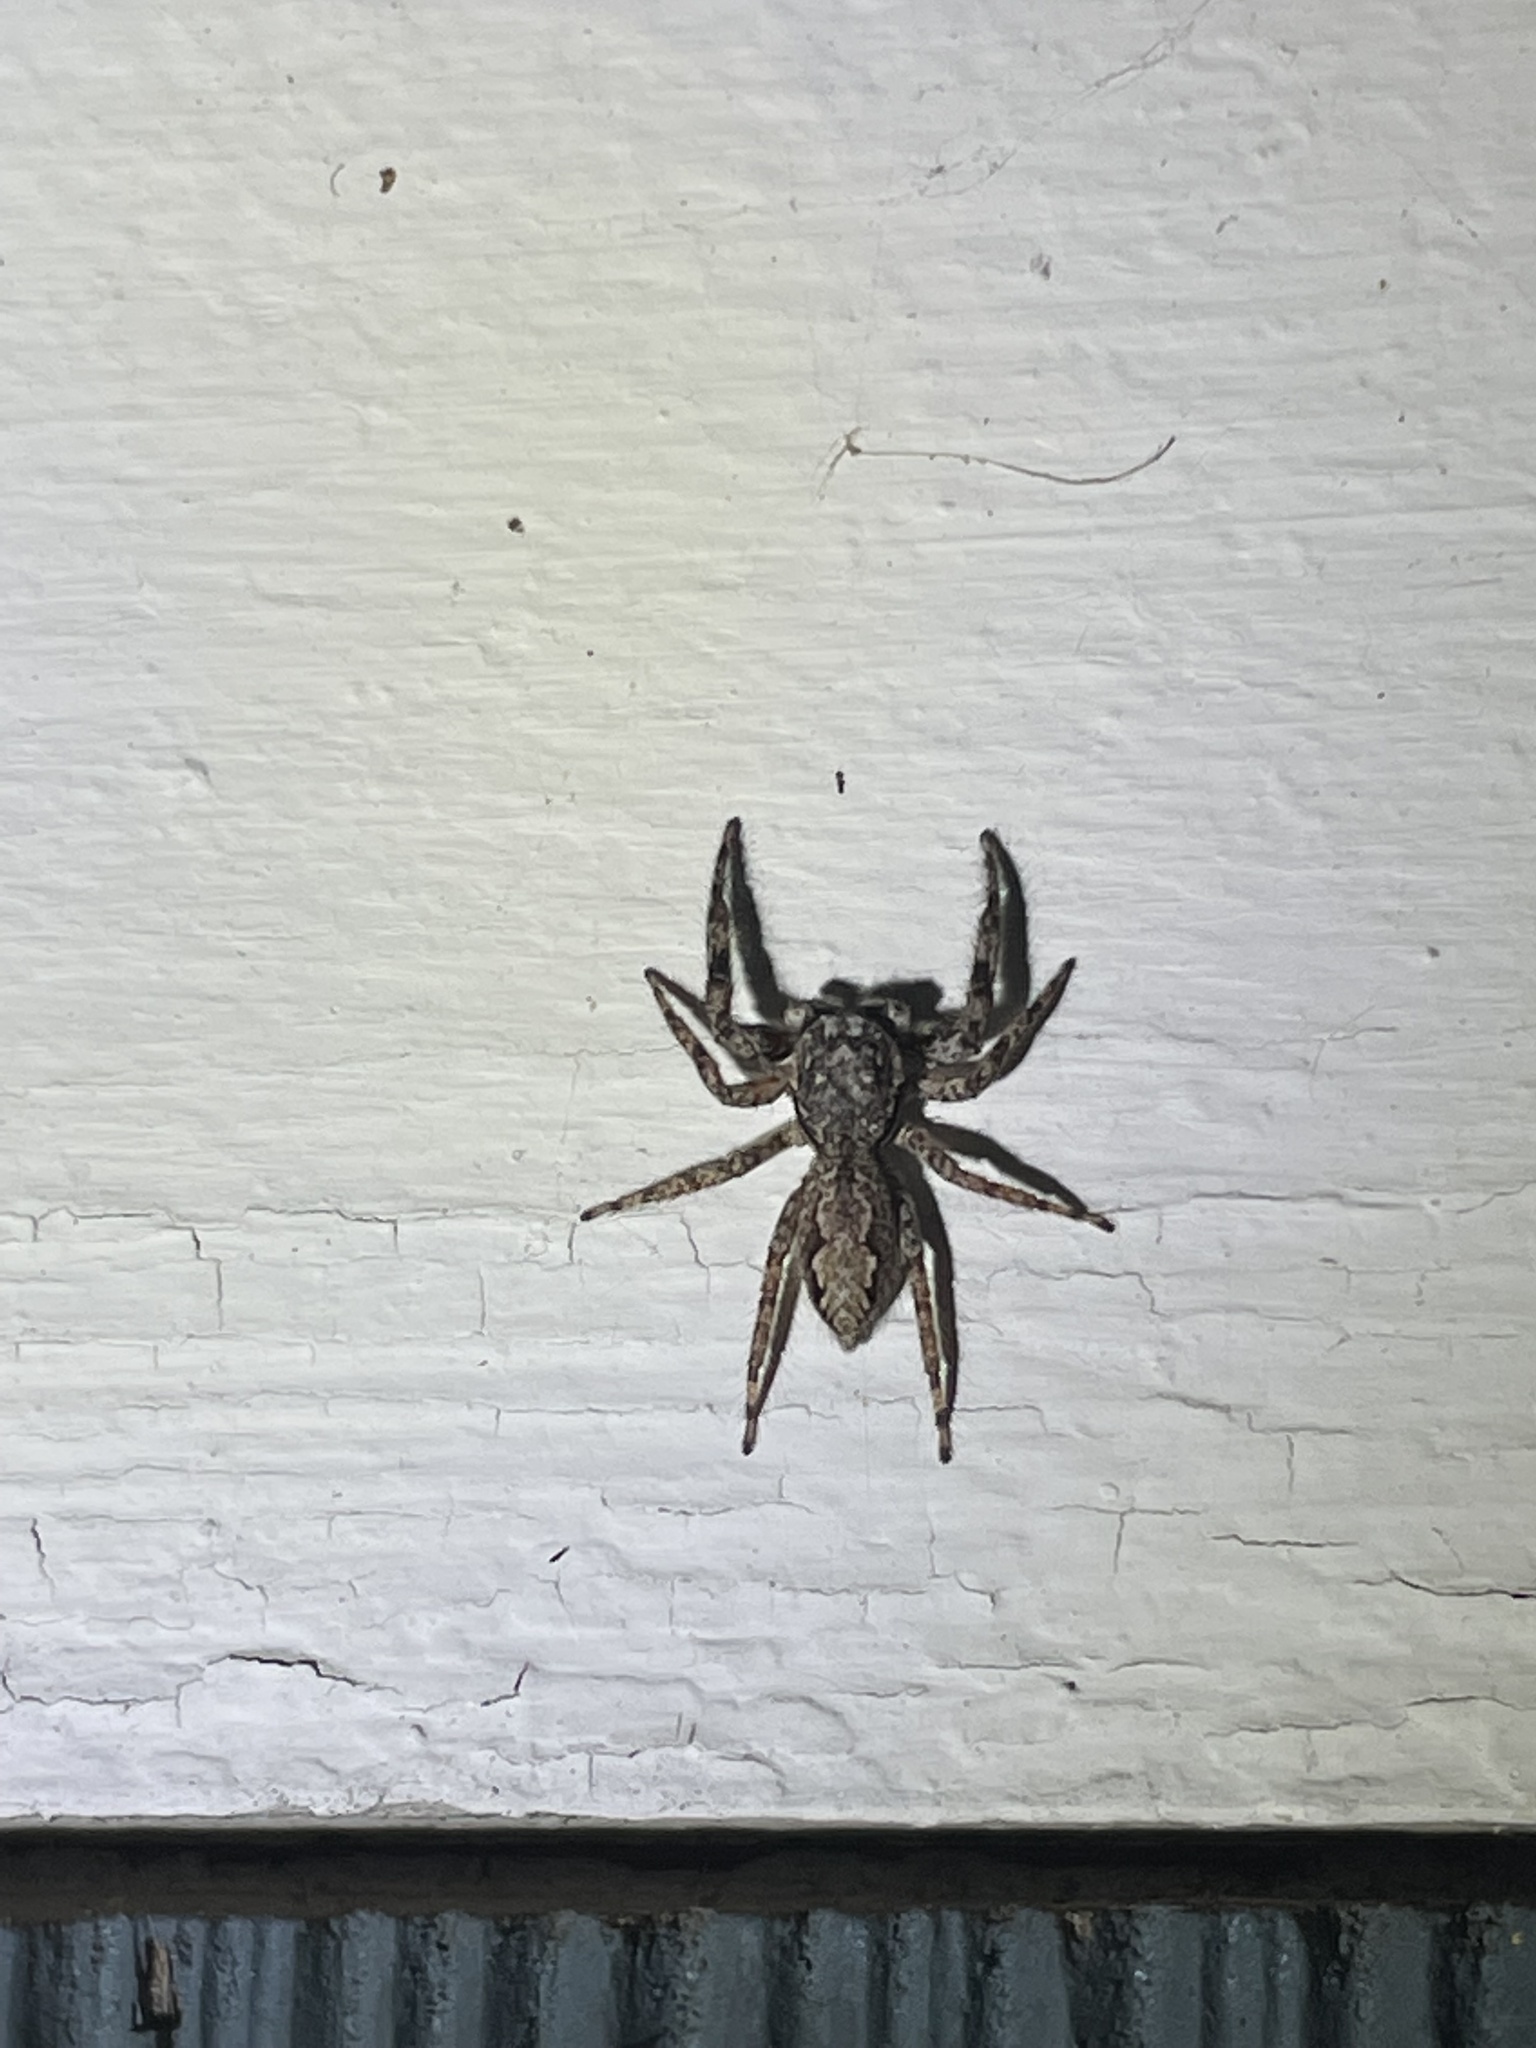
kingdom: Animalia
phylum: Arthropoda
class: Arachnida
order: Araneae
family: Salticidae
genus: Platycryptus
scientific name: Platycryptus undatus
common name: Tan jumping spider
